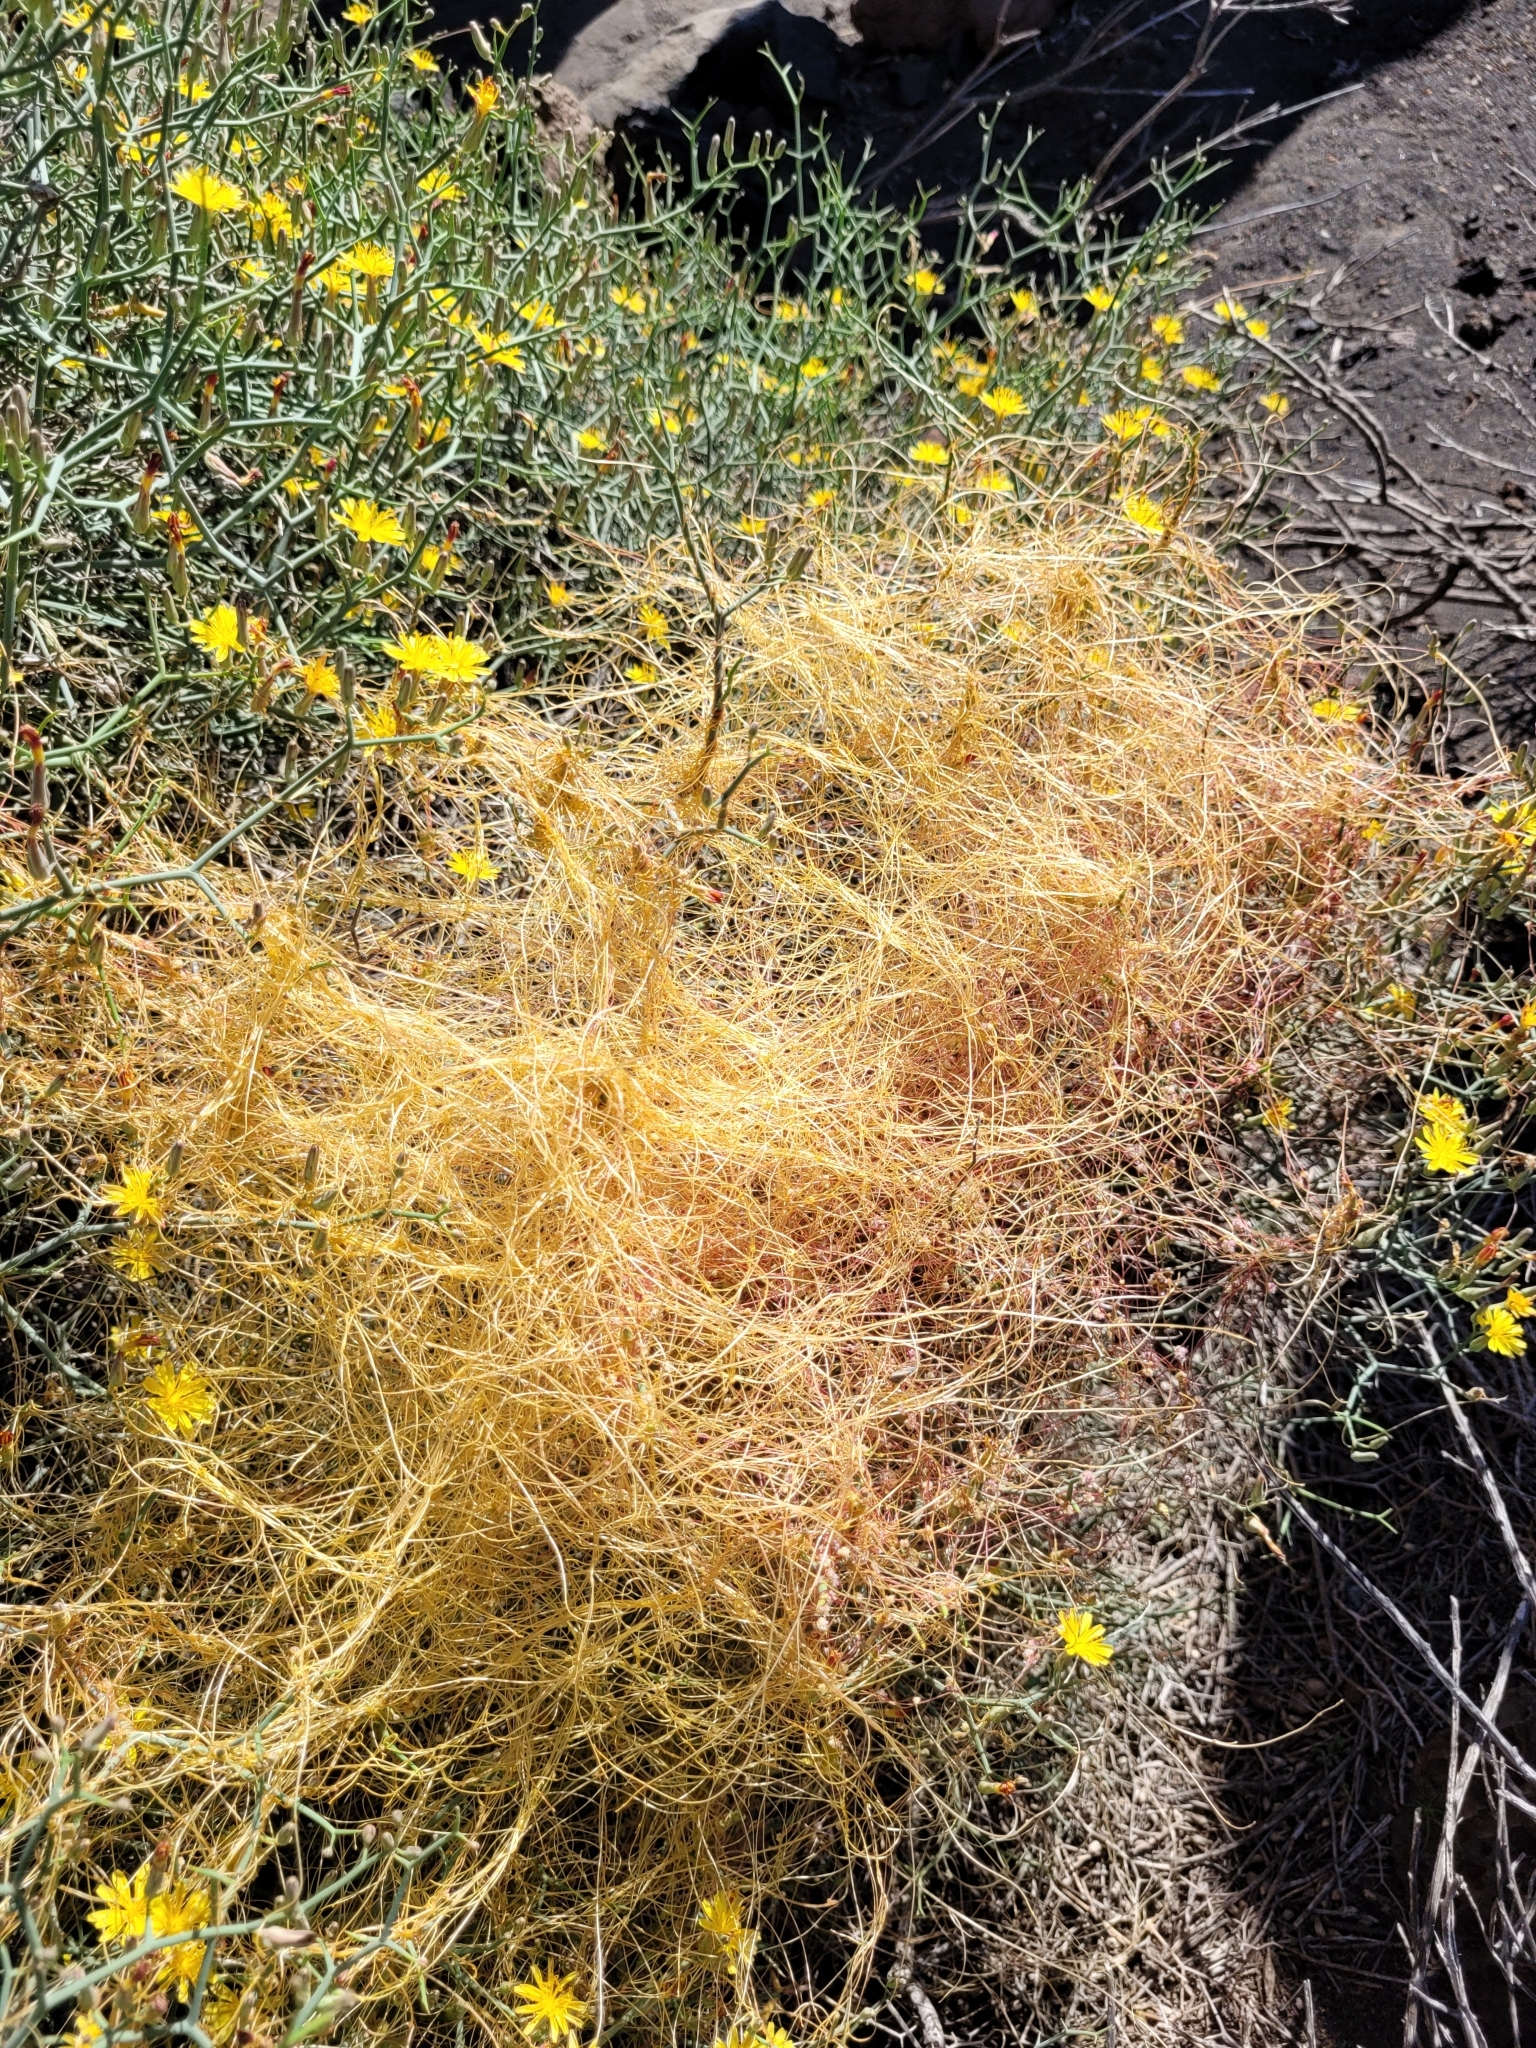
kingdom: Plantae
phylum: Tracheophyta
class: Magnoliopsida
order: Solanales
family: Convolvulaceae
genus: Cuscuta
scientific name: Cuscuta planiflora
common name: Small-seed alfalfa dodder
